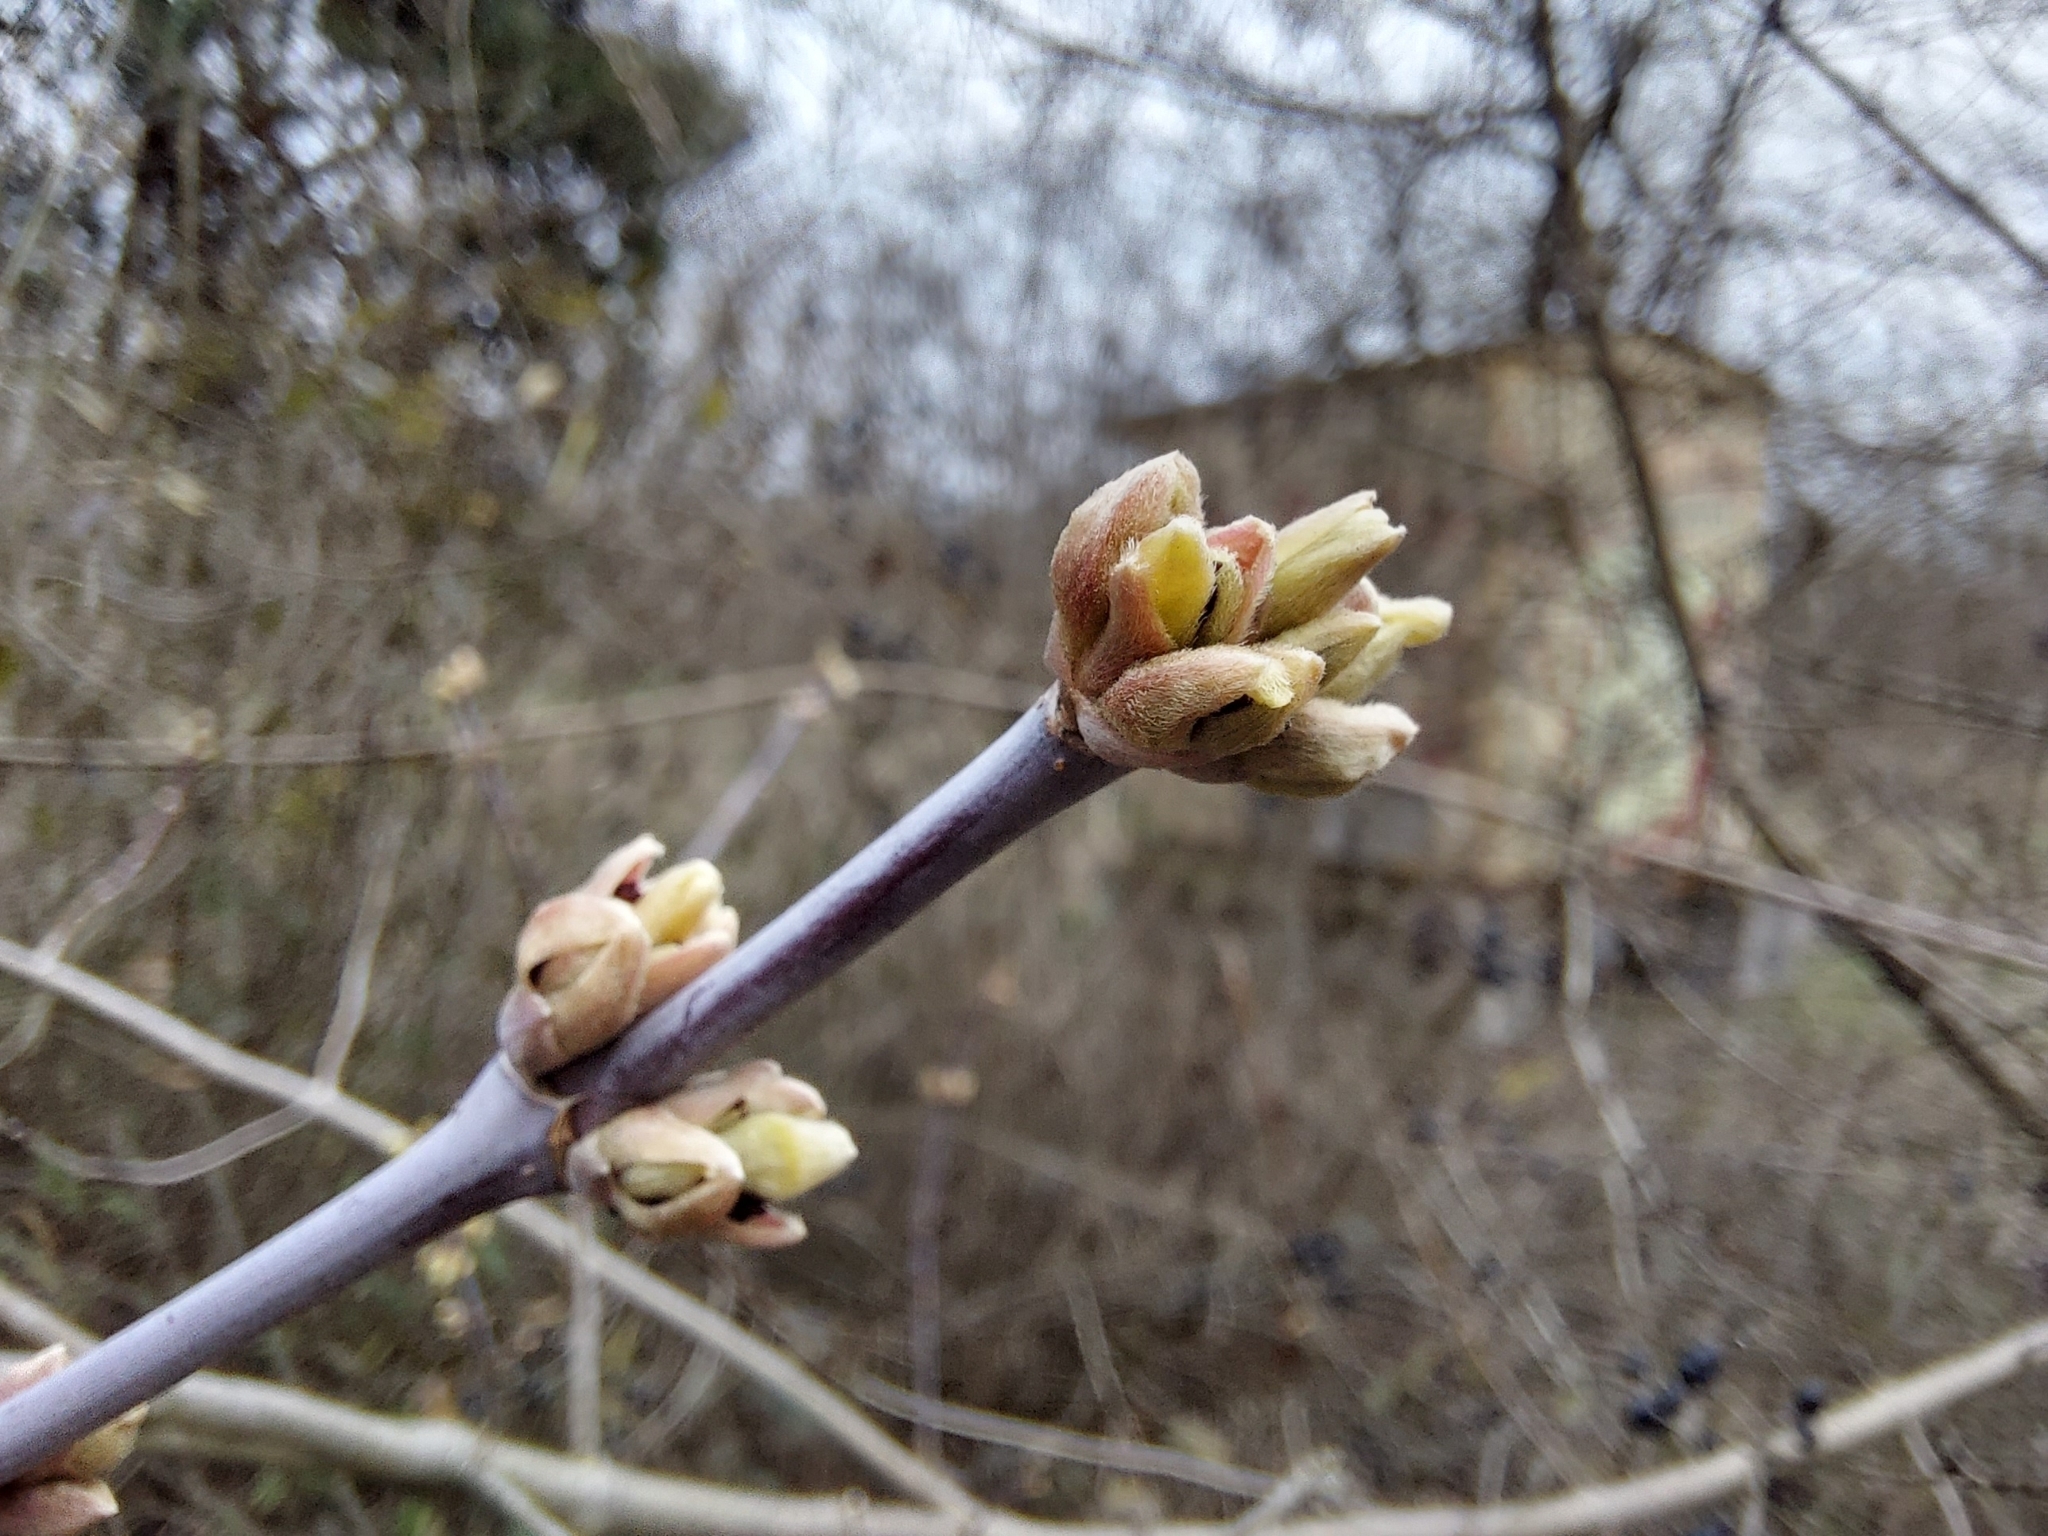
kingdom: Plantae
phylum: Tracheophyta
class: Magnoliopsida
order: Sapindales
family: Sapindaceae
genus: Acer
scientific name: Acer negundo
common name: Ashleaf maple
